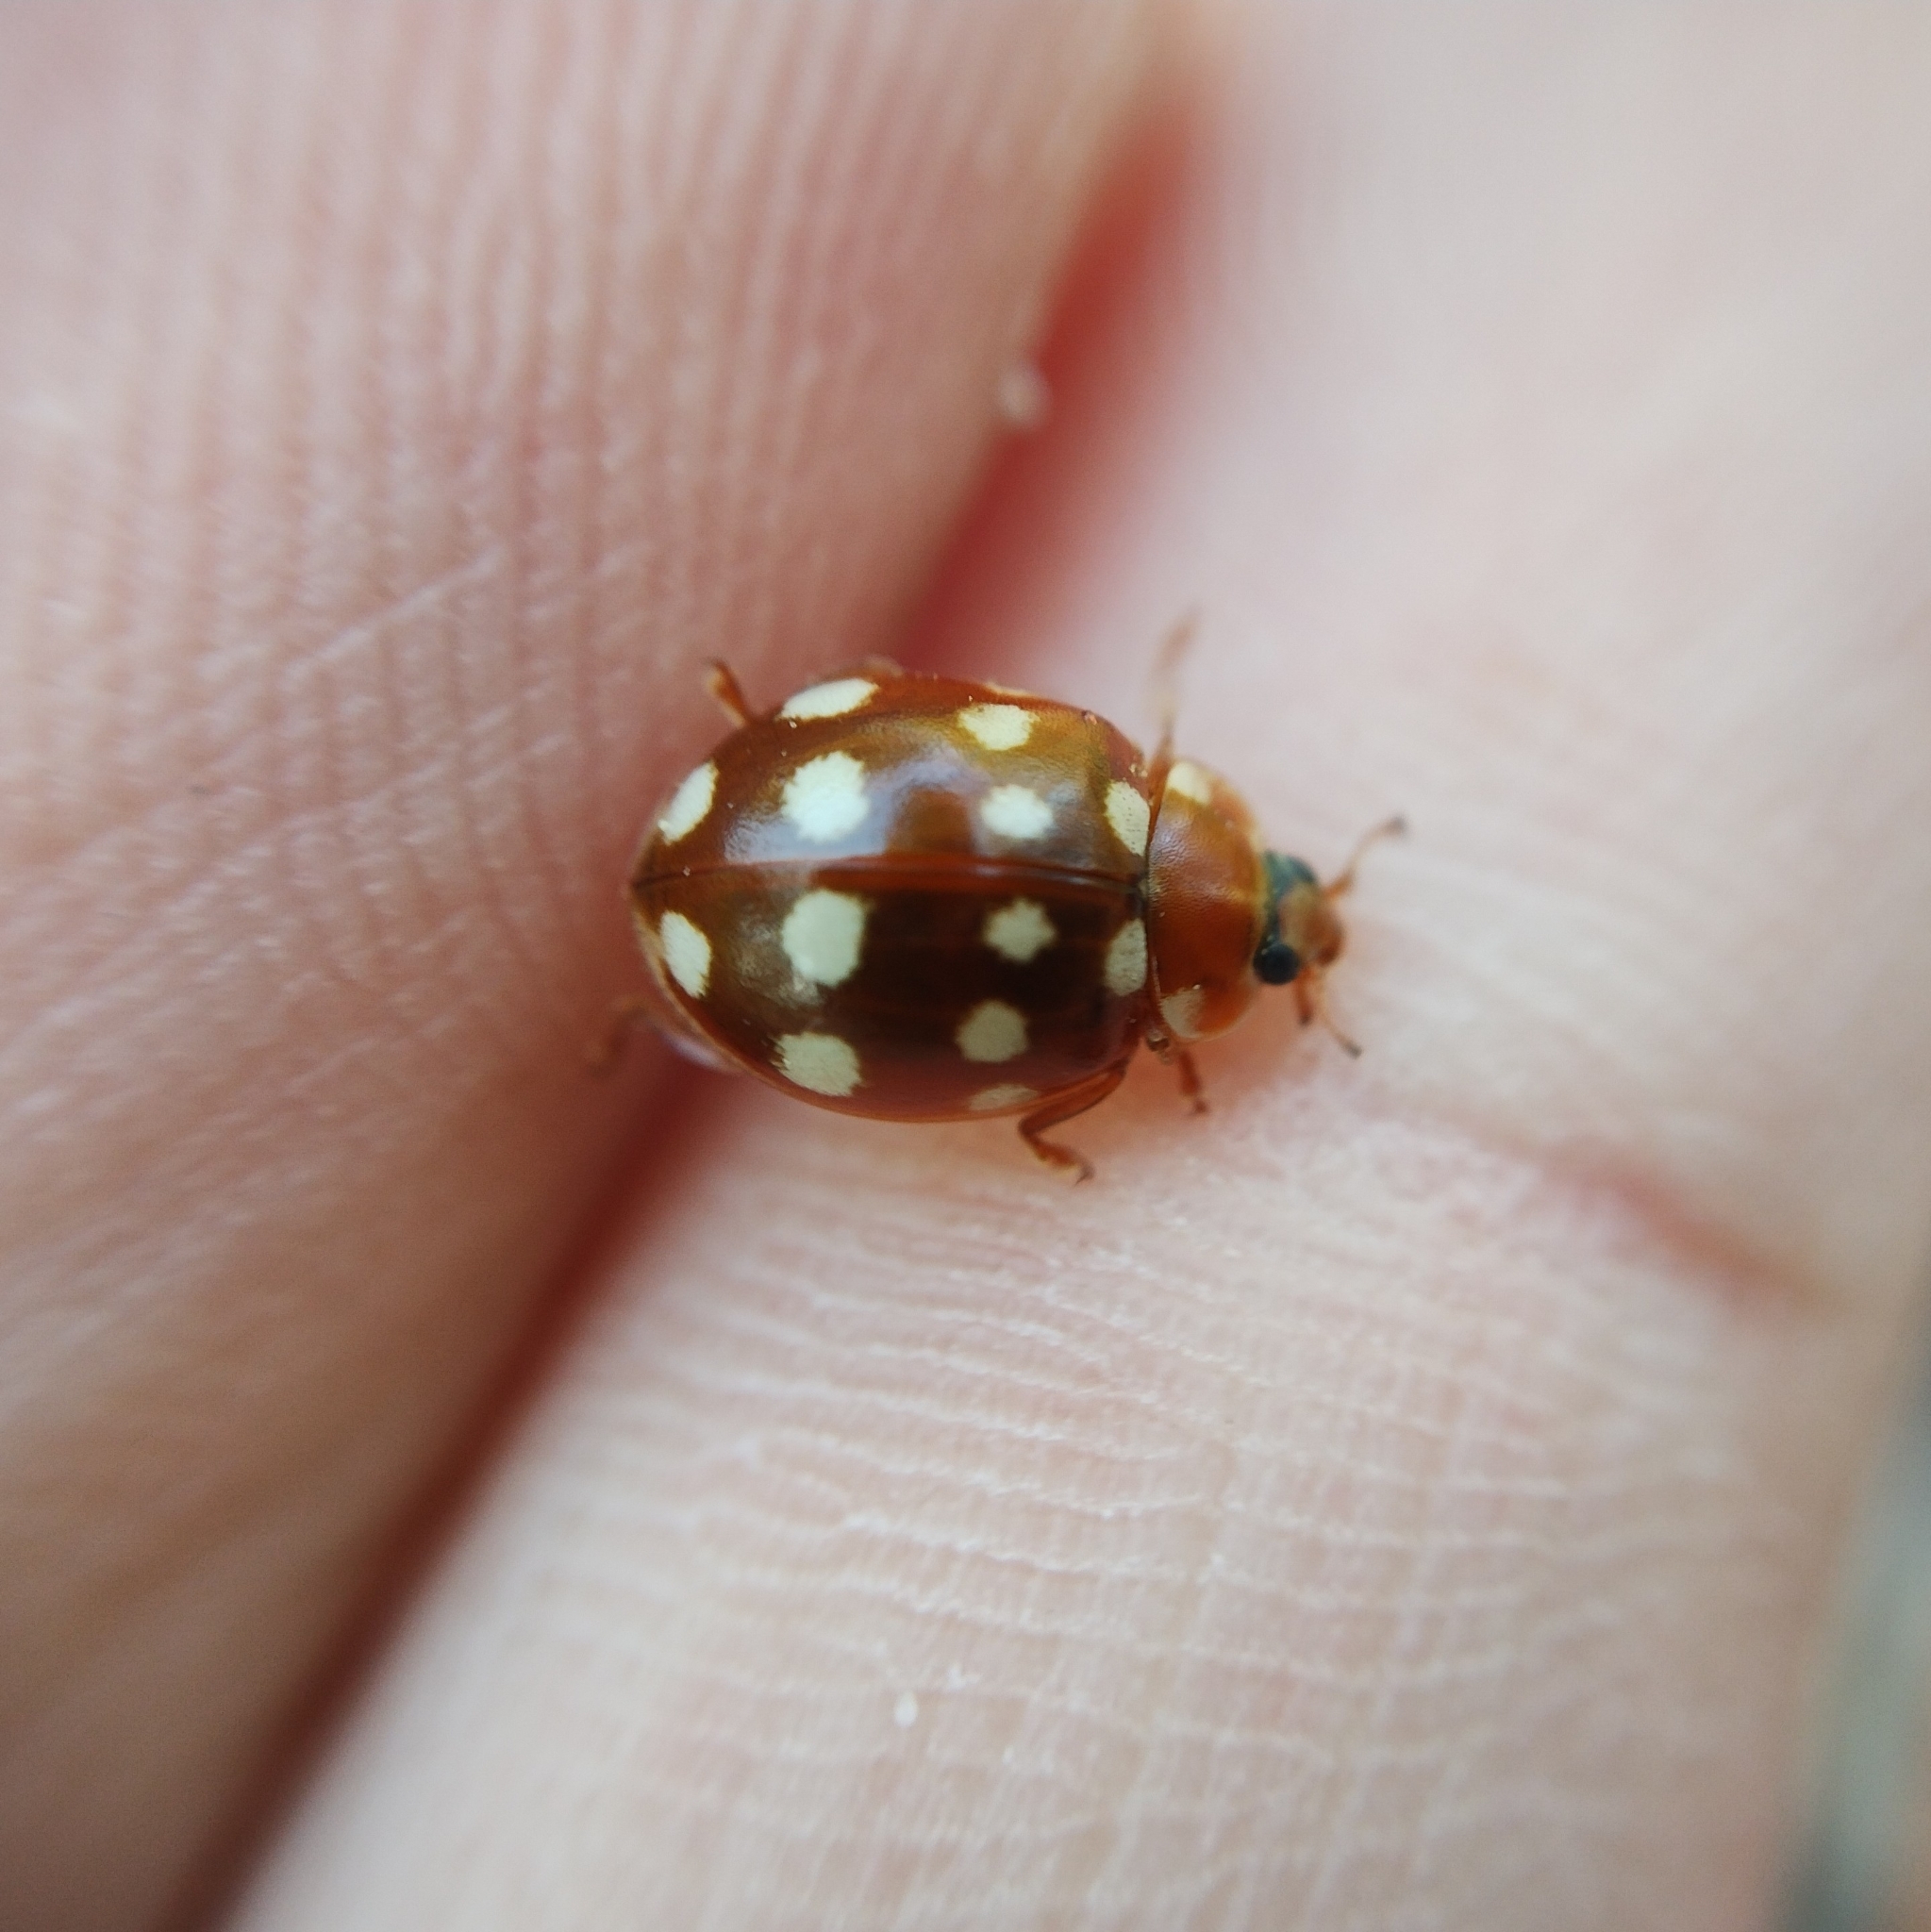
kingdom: Animalia
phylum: Arthropoda
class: Insecta
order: Coleoptera
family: Coccinellidae
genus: Calvia
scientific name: Calvia quatuordecimguttata
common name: Cream-spot ladybird
